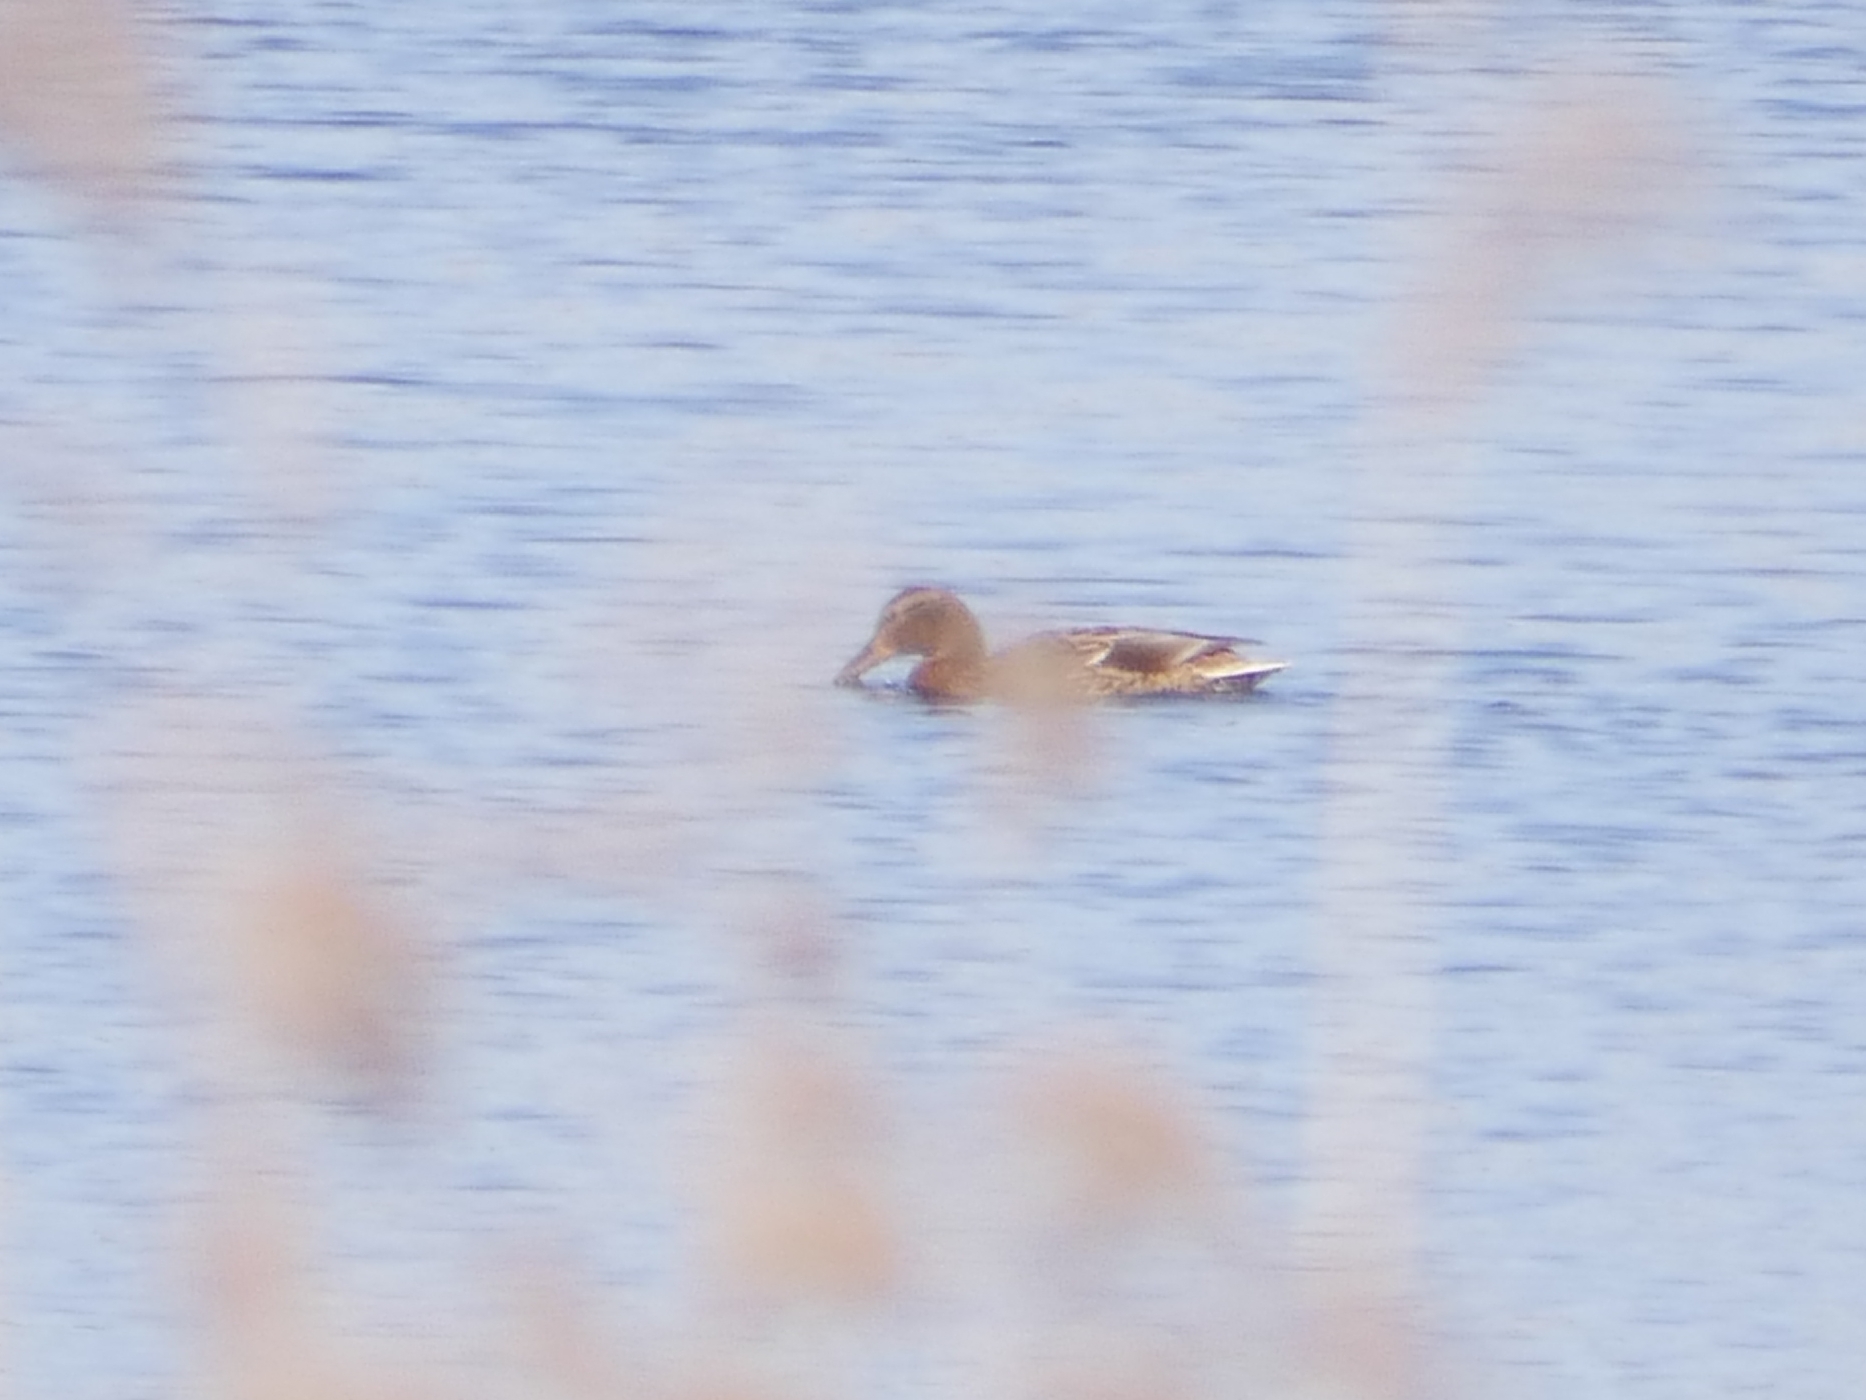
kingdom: Animalia
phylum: Chordata
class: Aves
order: Anseriformes
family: Anatidae
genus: Anas
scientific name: Anas platyrhynchos
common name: Mallard
